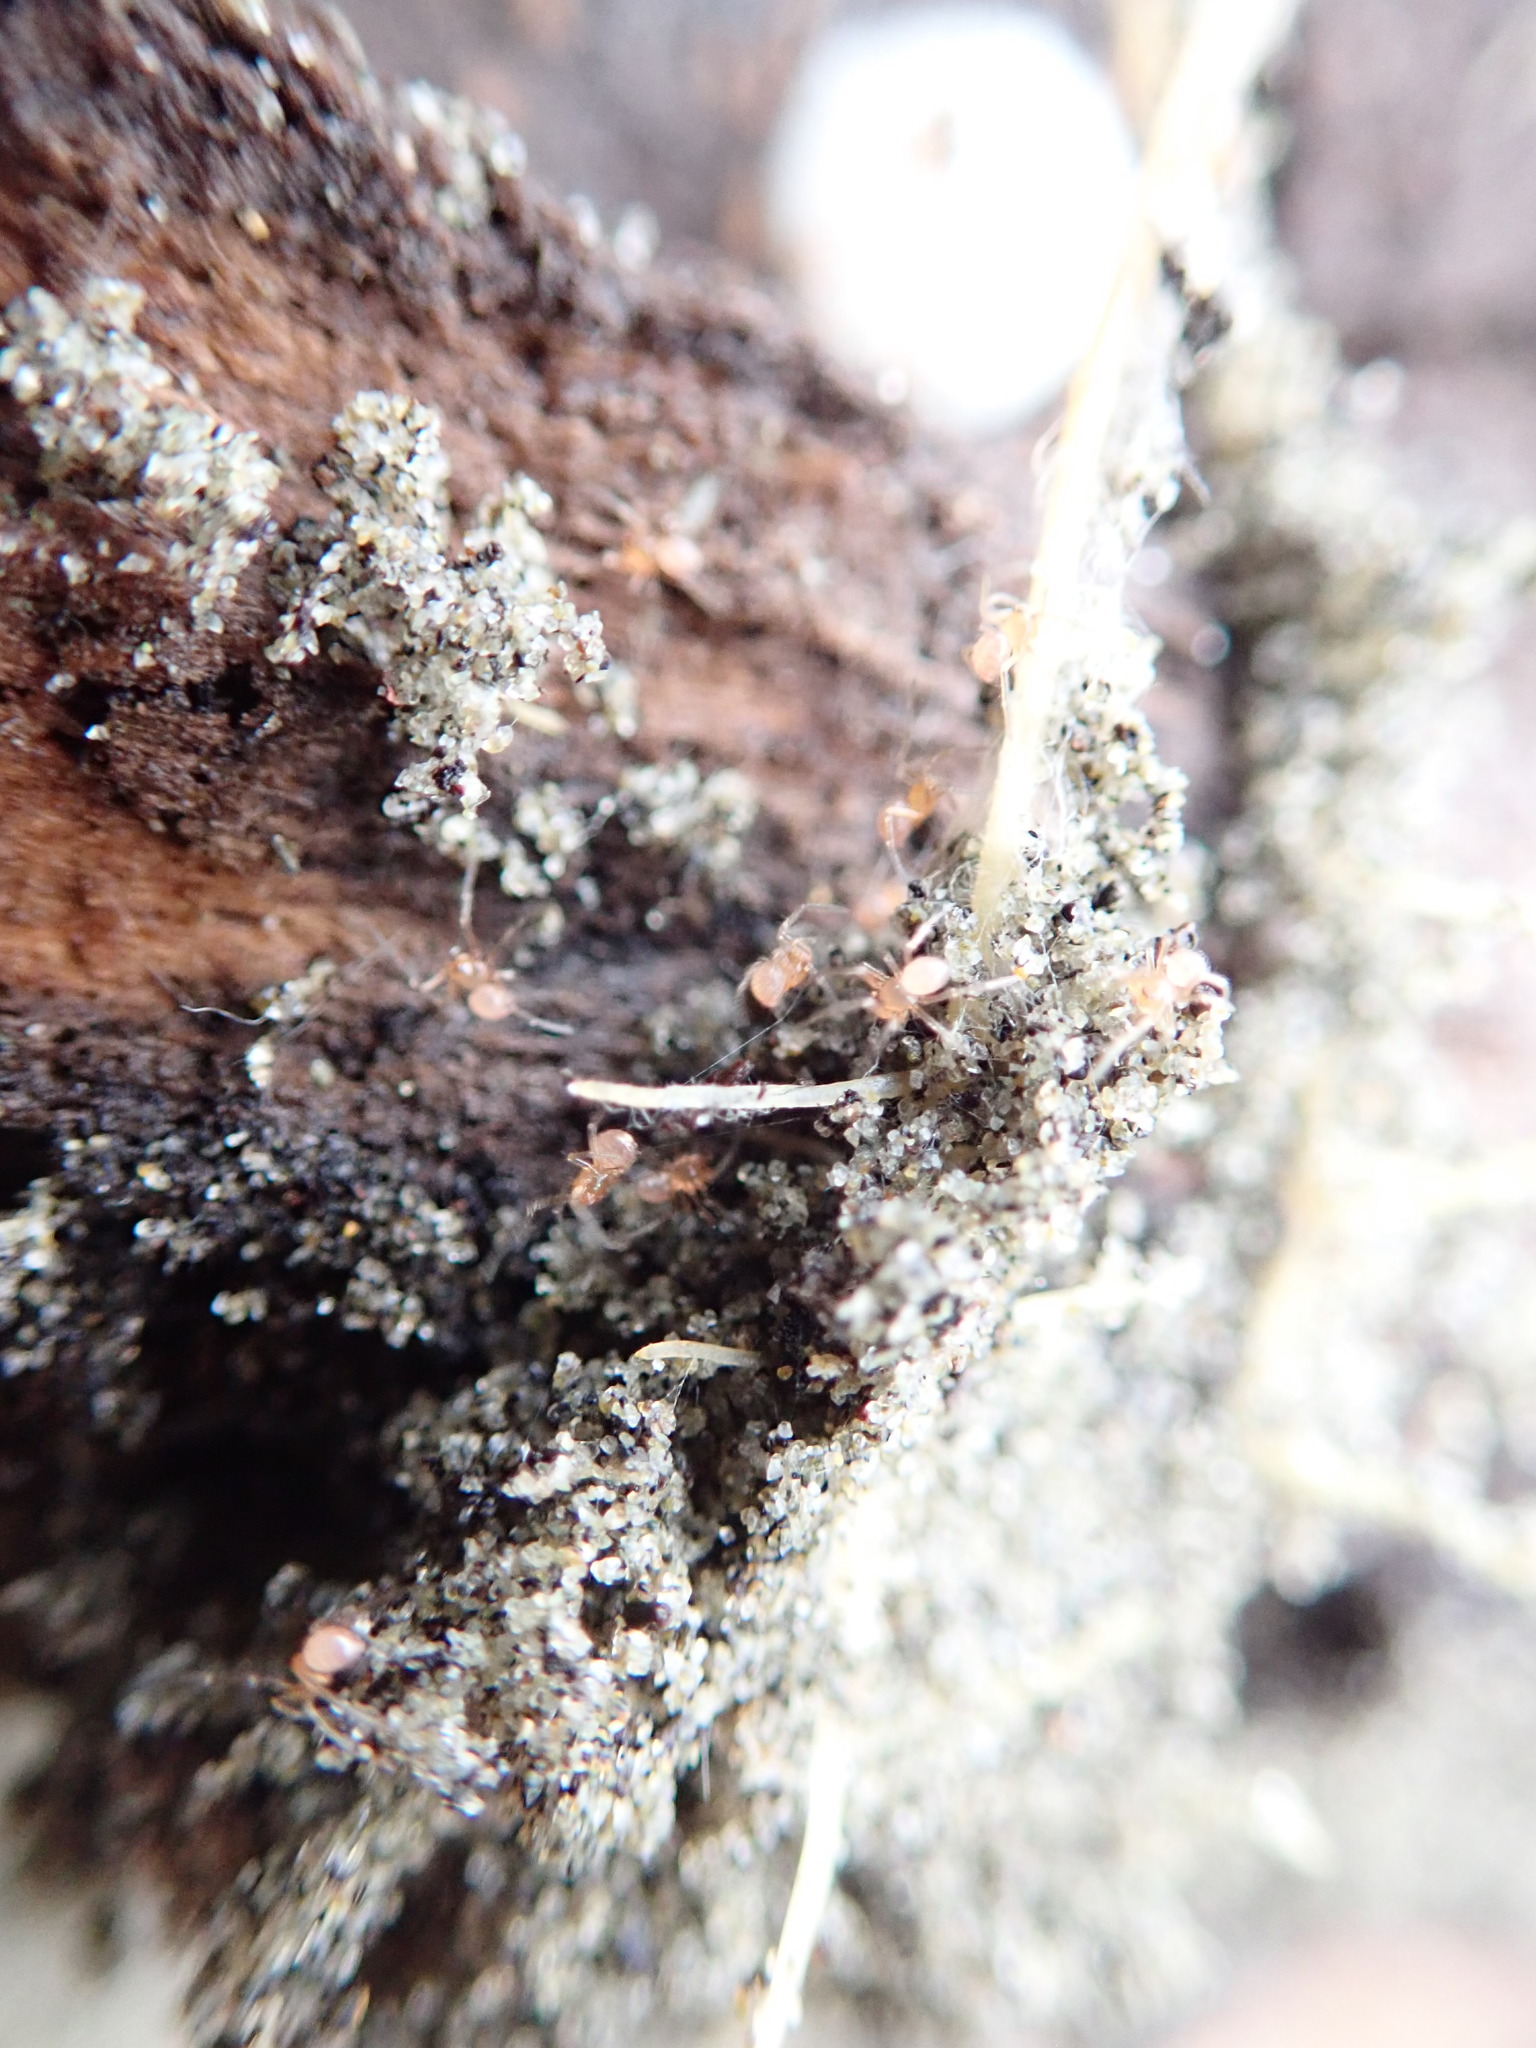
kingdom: Animalia
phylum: Arthropoda
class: Arachnida
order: Araneae
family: Theridiidae
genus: Steatoda
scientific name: Steatoda capensis
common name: Cobweb weaver
